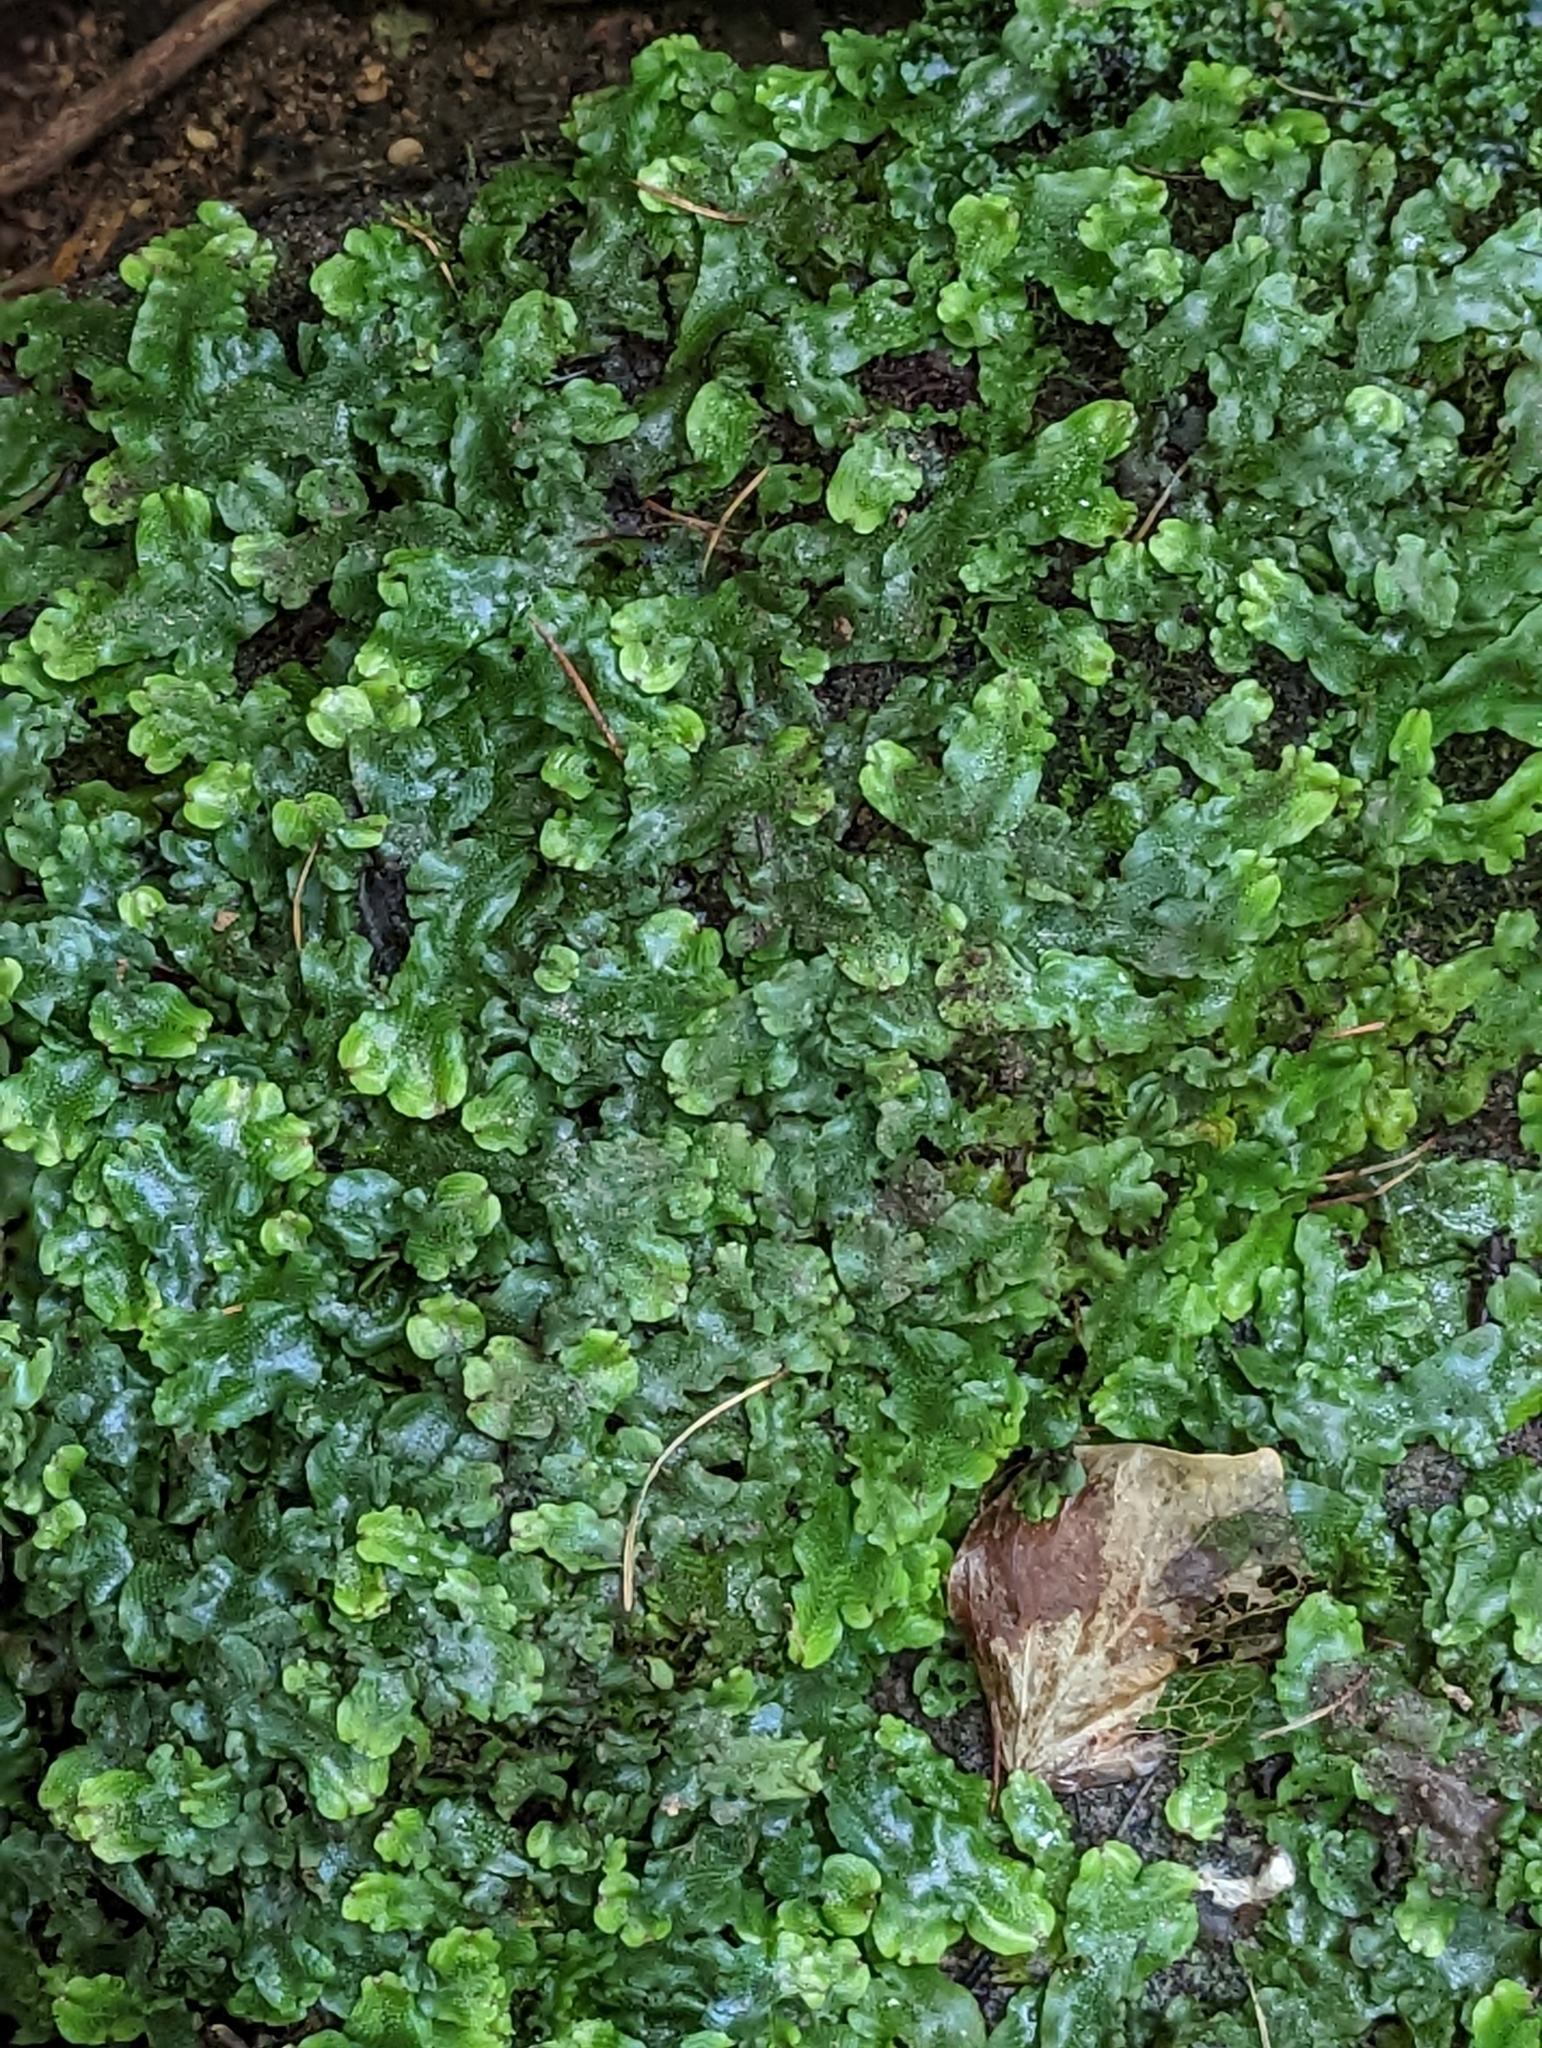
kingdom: Plantae
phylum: Marchantiophyta
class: Marchantiopsida
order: Marchantiales
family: Conocephalaceae
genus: Conocephalum
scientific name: Conocephalum conicum
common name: Great scented liverwort
